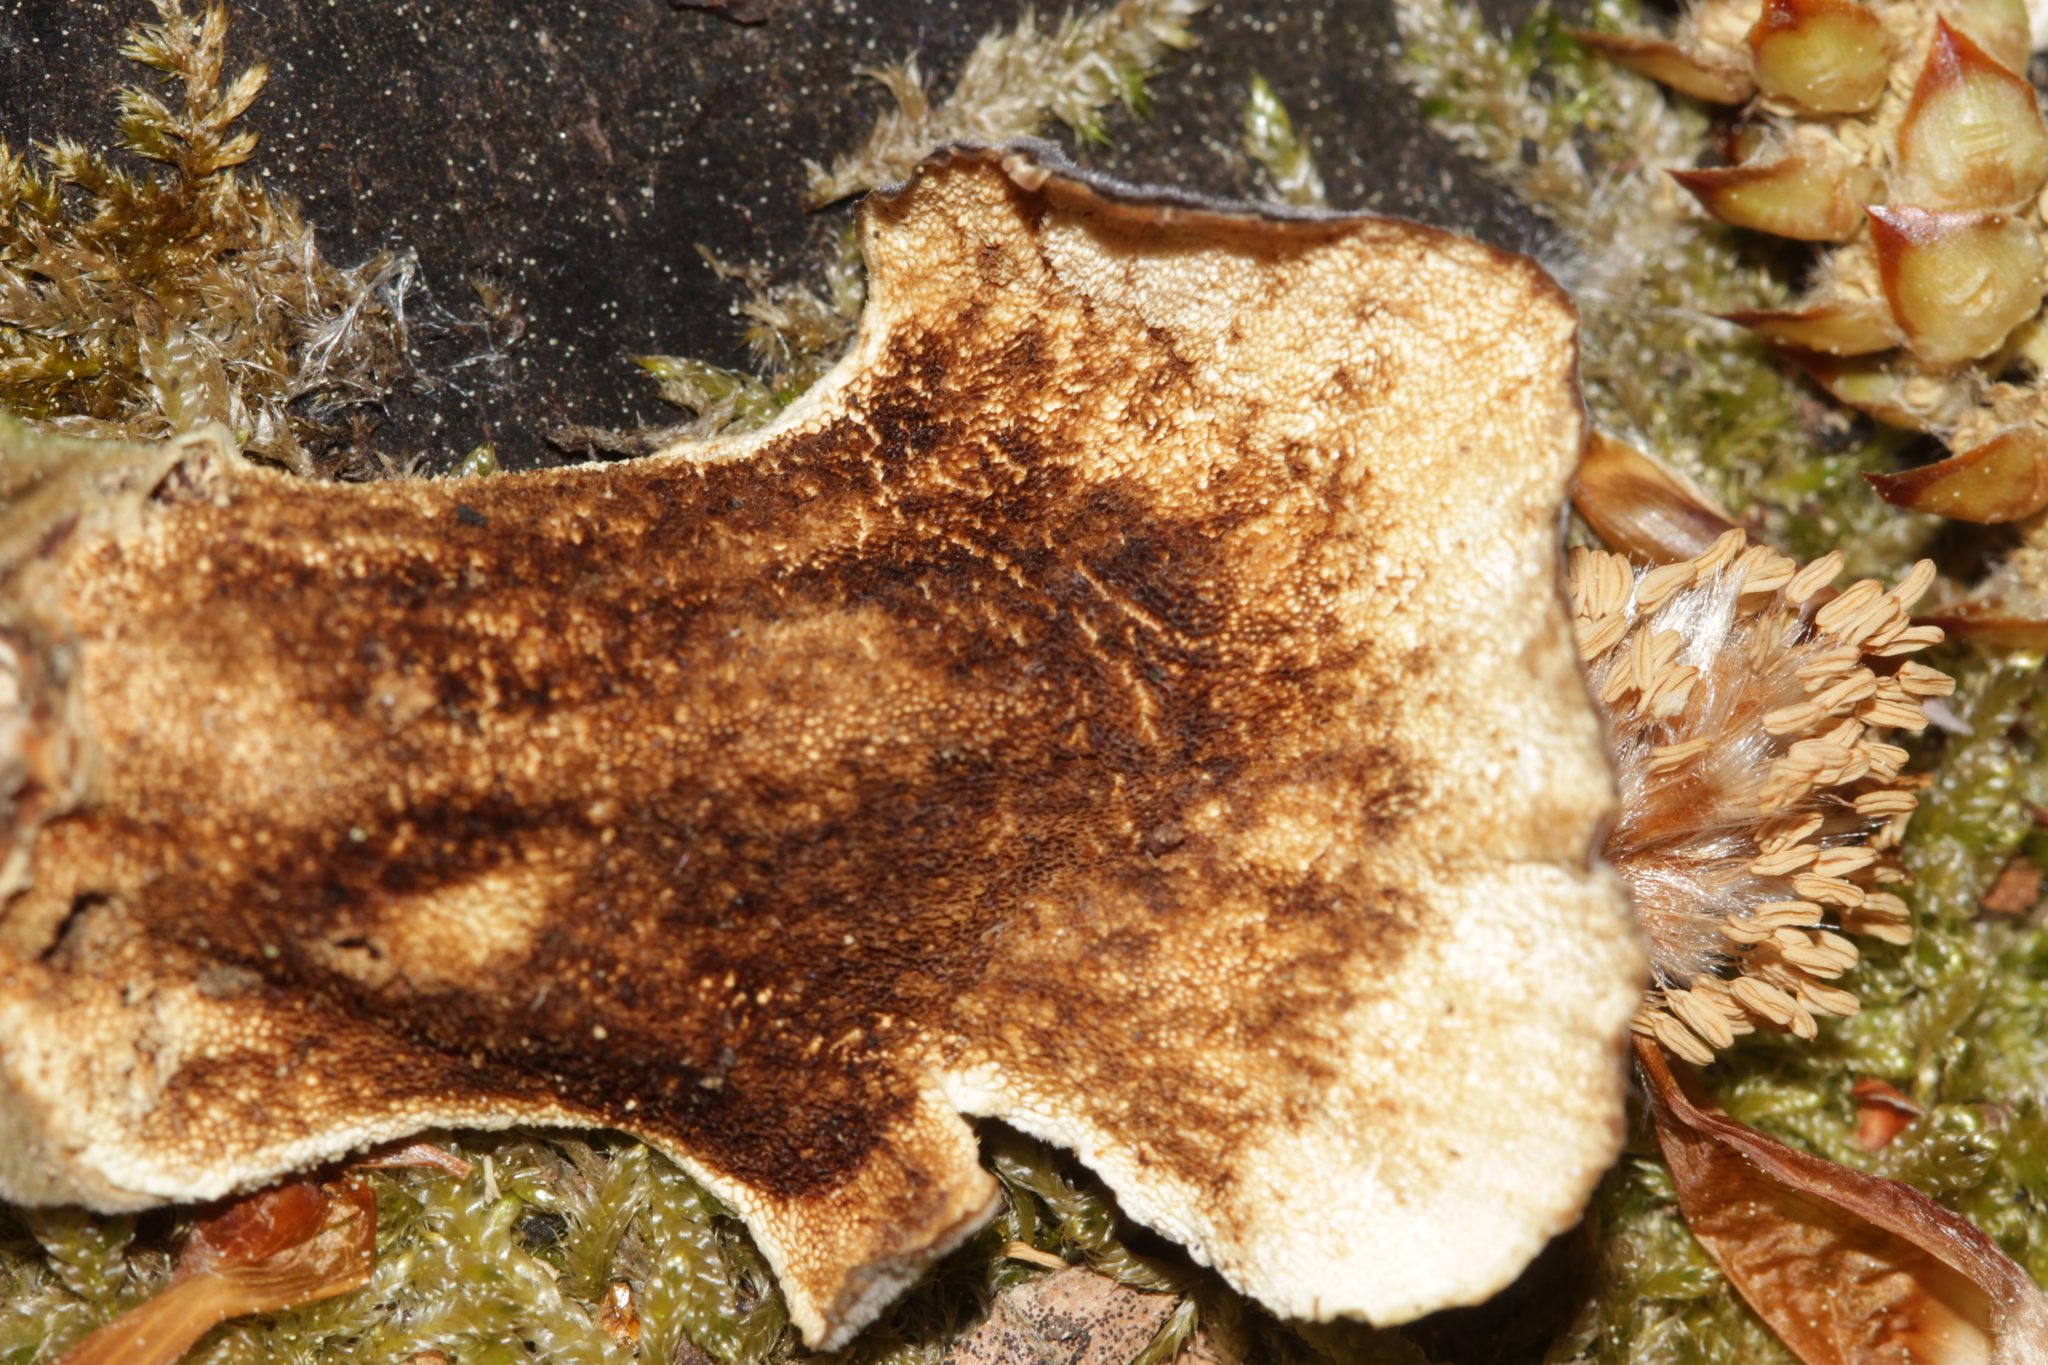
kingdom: Fungi
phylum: Basidiomycota
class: Agaricomycetes
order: Polyporales
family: Polyporaceae
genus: Trametes
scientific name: Trametes versicolor
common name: Turkeytail
